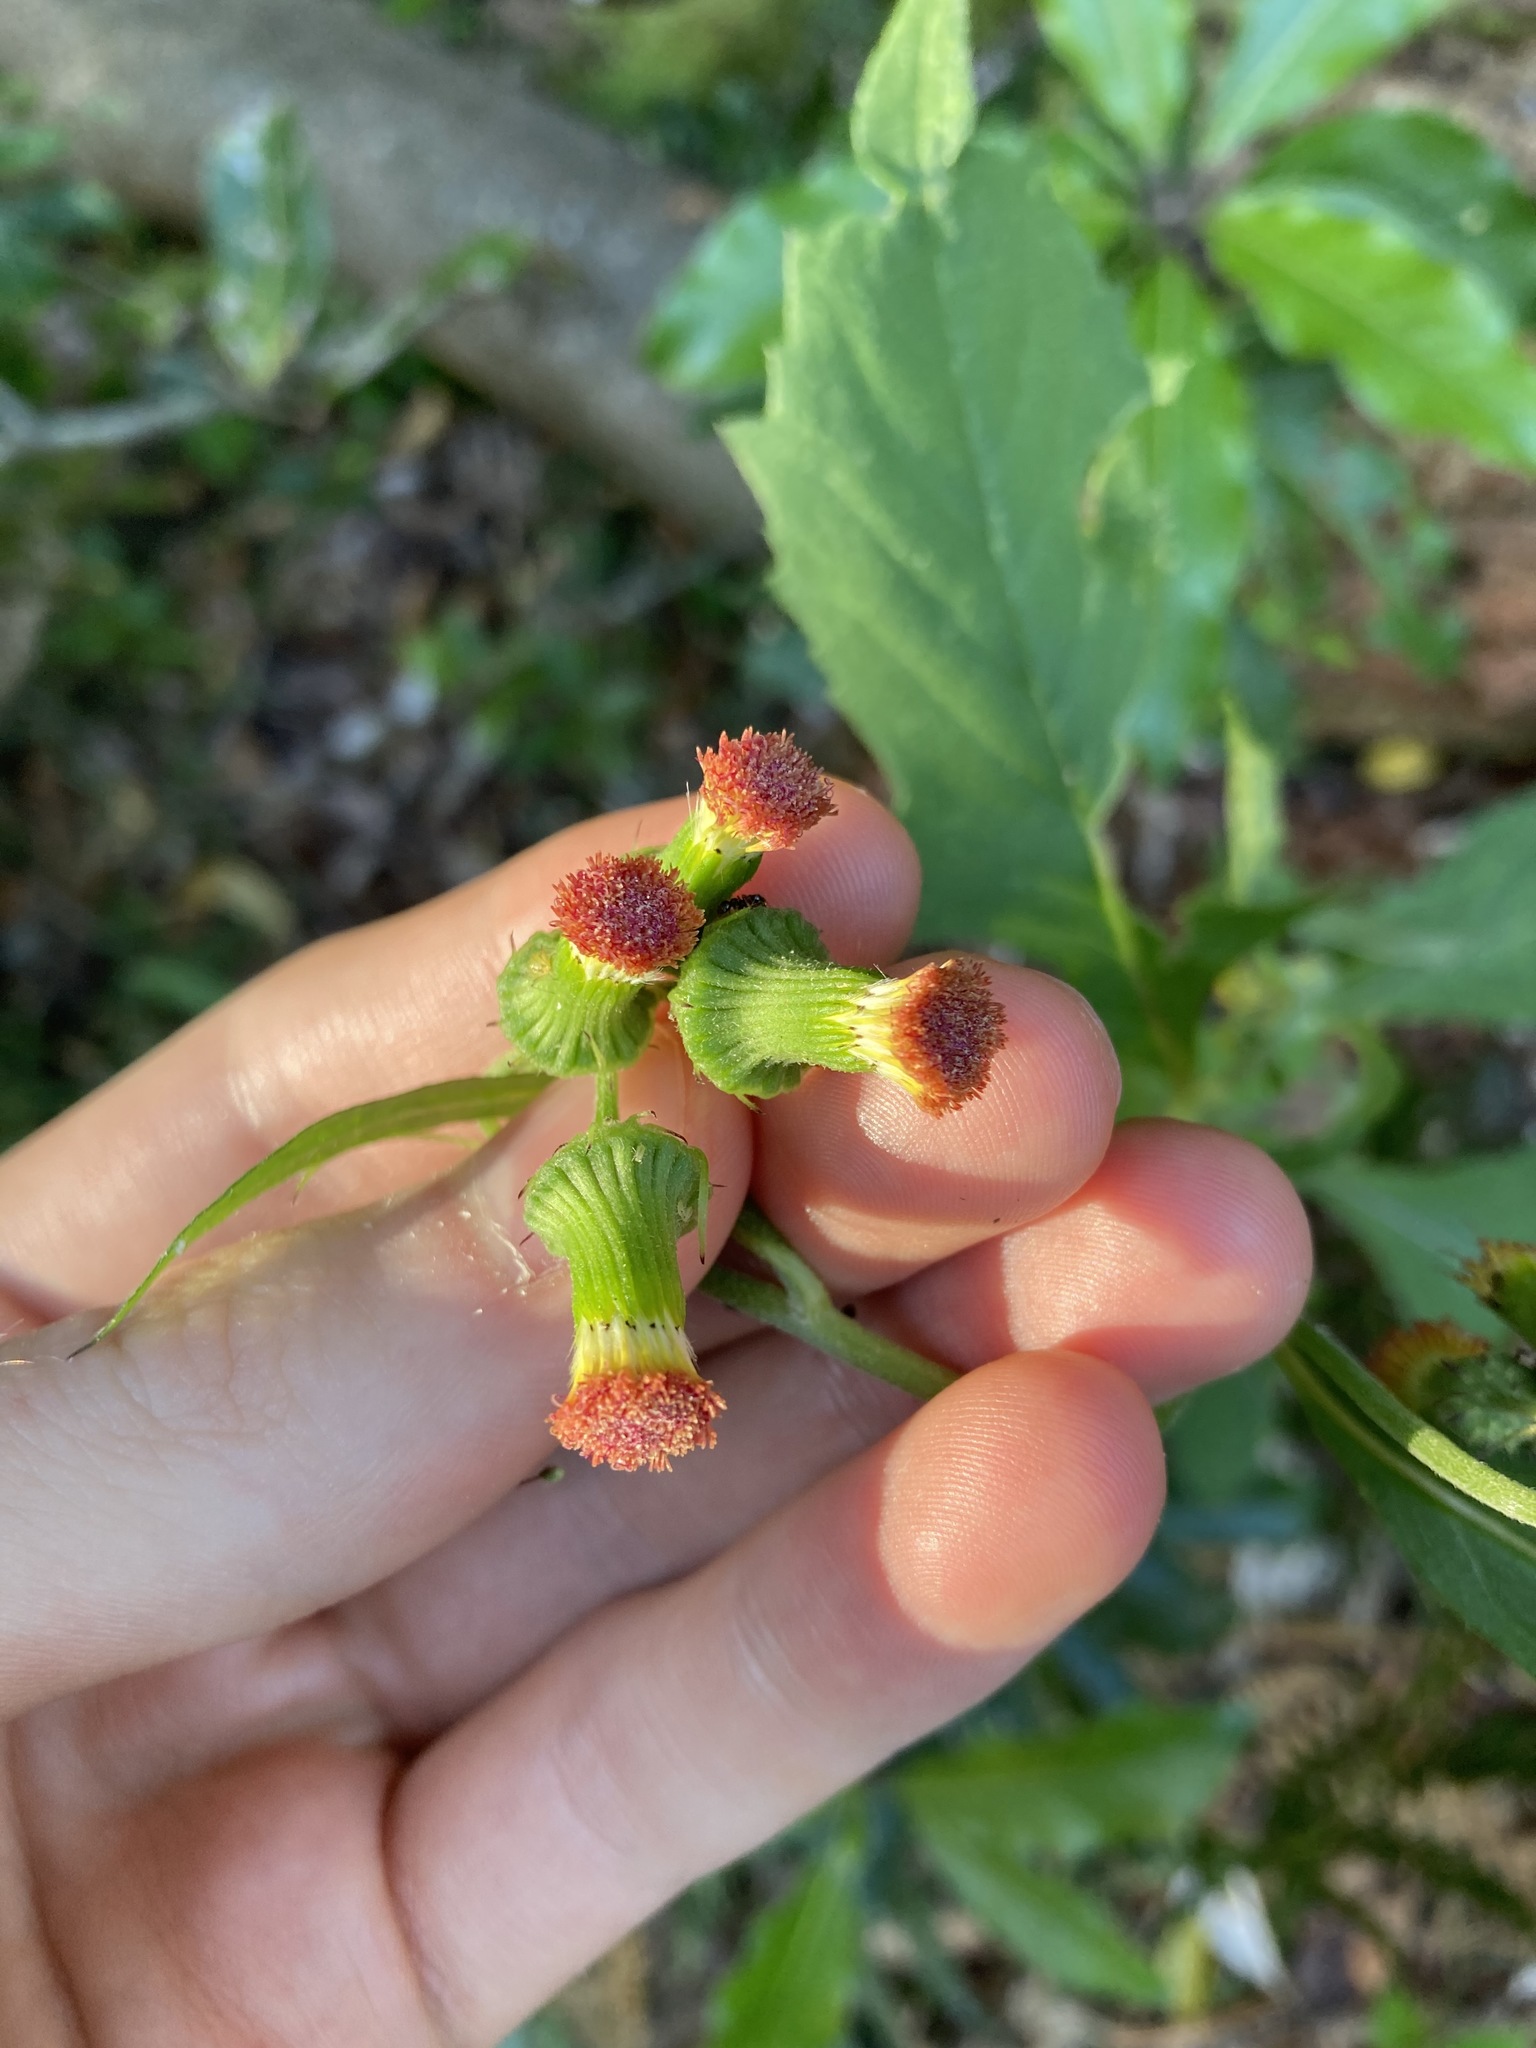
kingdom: Plantae
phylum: Tracheophyta
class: Magnoliopsida
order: Asterales
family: Asteraceae
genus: Crassocephalum
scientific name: Crassocephalum crepidioides
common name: Redflower ragleaf
